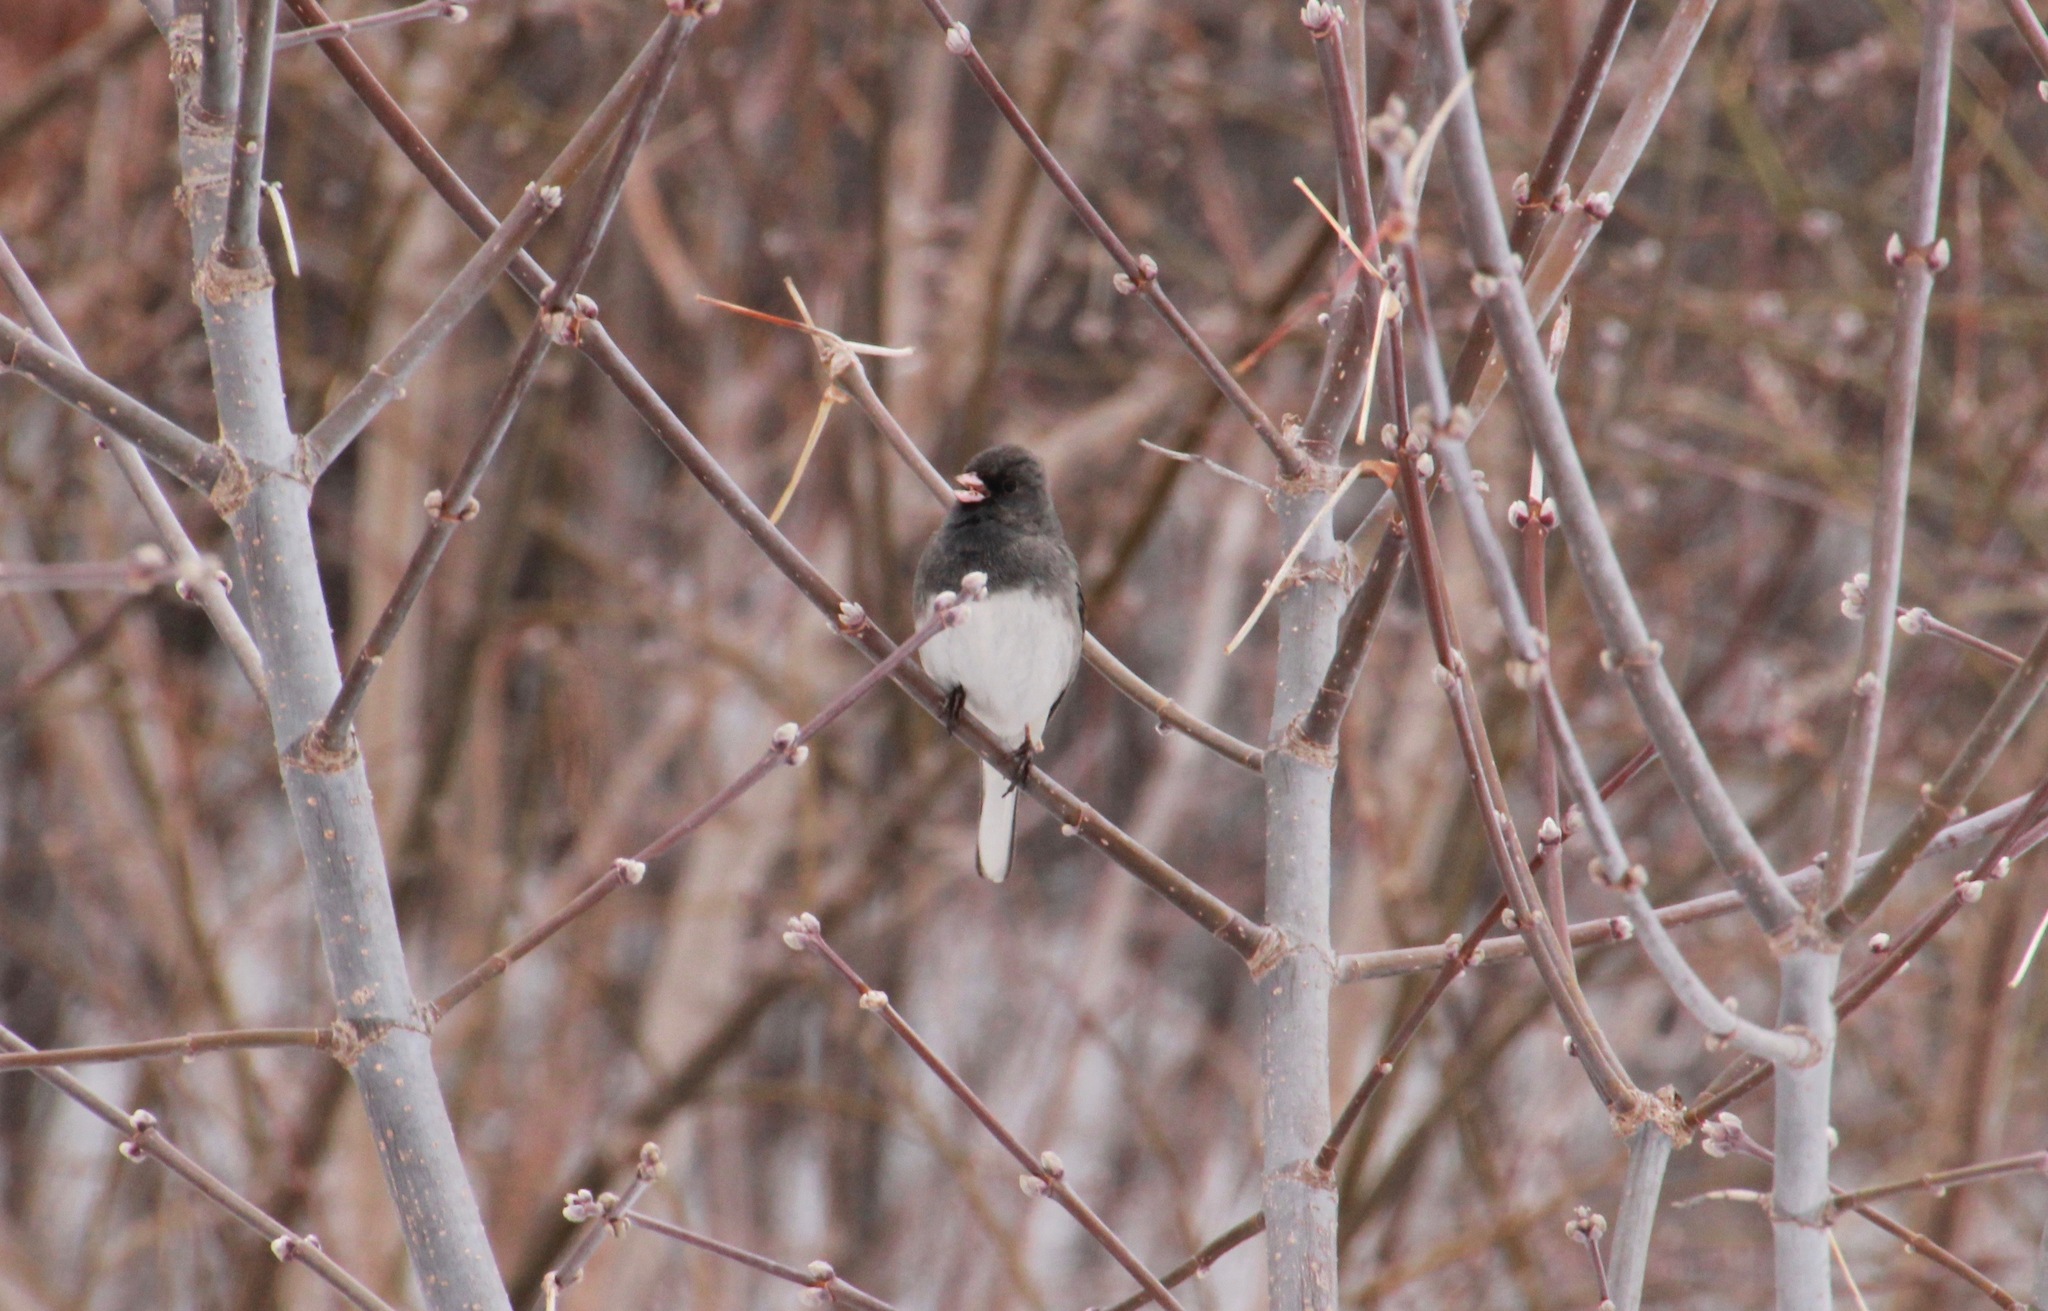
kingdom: Animalia
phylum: Chordata
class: Aves
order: Passeriformes
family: Passerellidae
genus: Junco
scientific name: Junco hyemalis
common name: Dark-eyed junco
